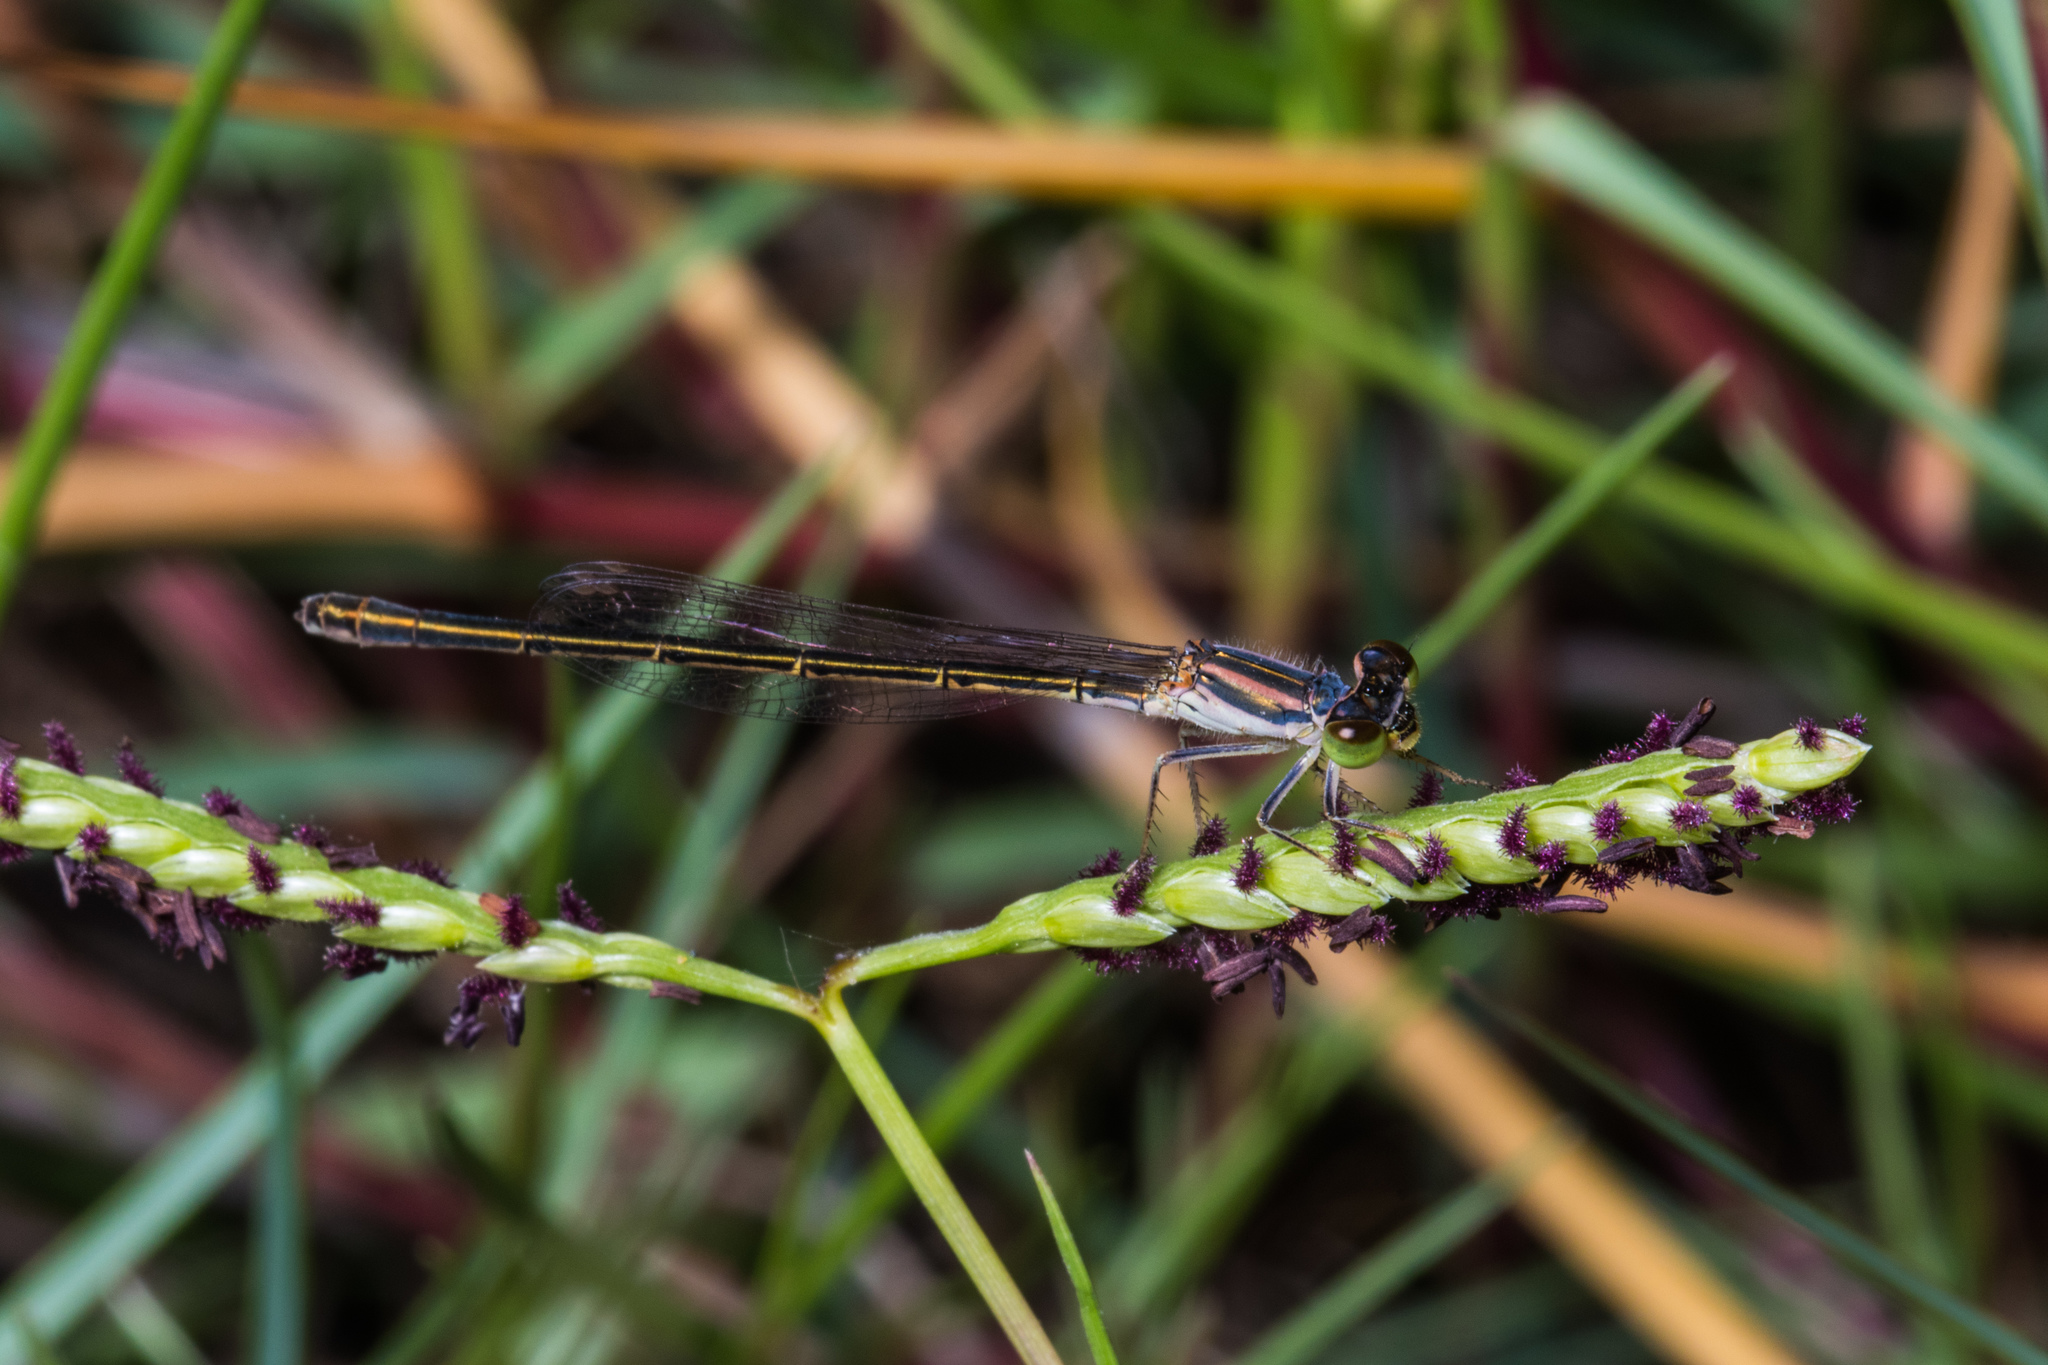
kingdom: Animalia
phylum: Arthropoda
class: Insecta
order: Odonata
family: Coenagrionidae
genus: Ischnura
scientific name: Ischnura aurora
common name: Gossamer damselfly
